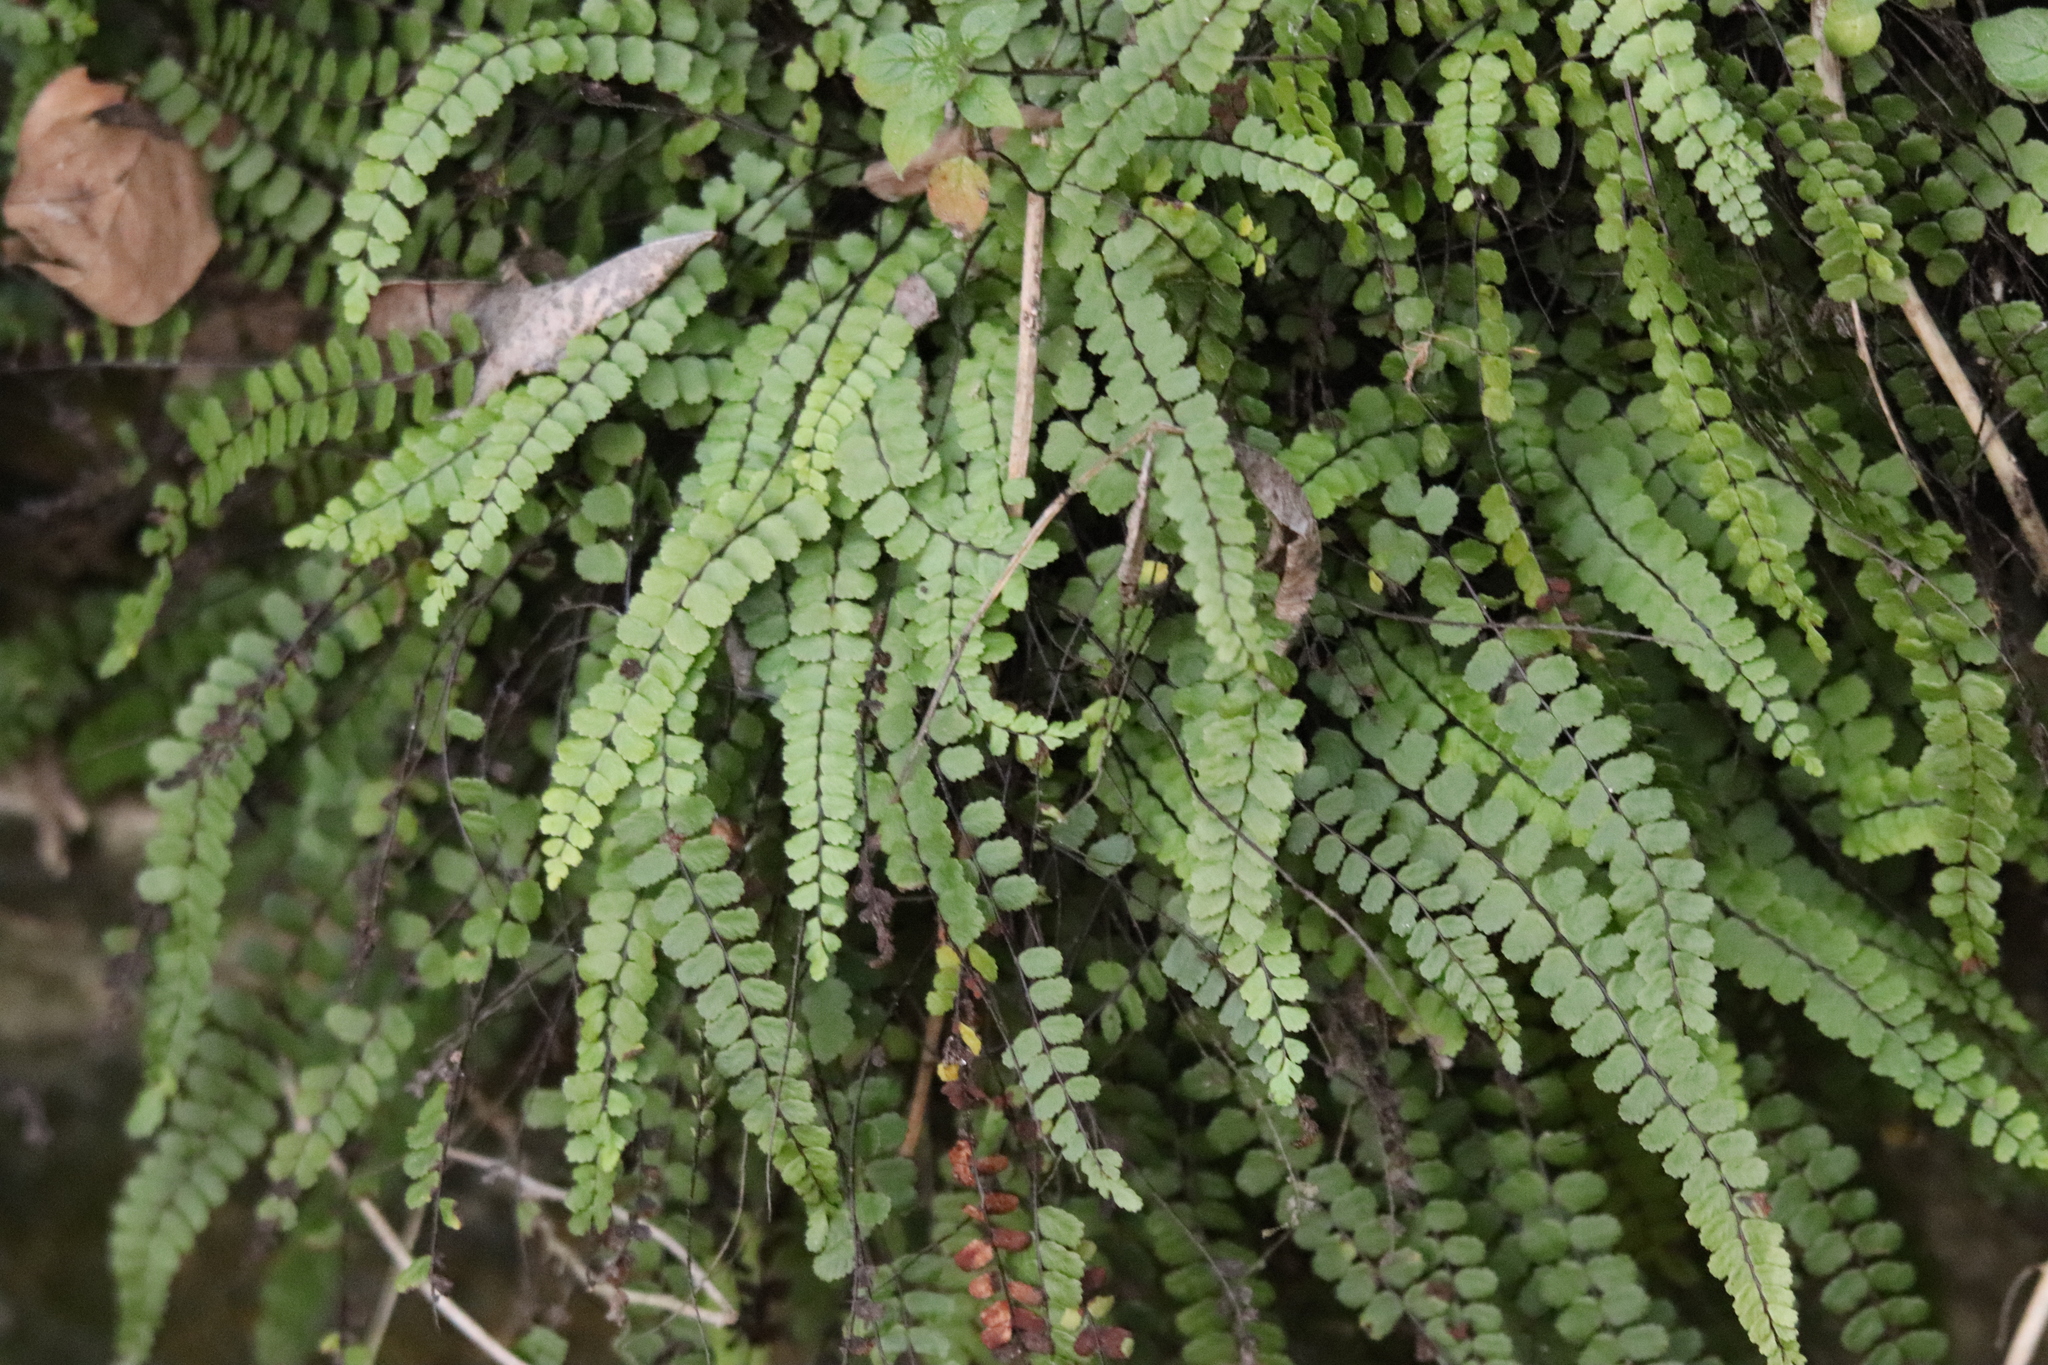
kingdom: Plantae
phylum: Tracheophyta
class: Polypodiopsida
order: Polypodiales
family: Aspleniaceae
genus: Asplenium
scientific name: Asplenium trichomanes
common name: Maidenhair spleenwort
